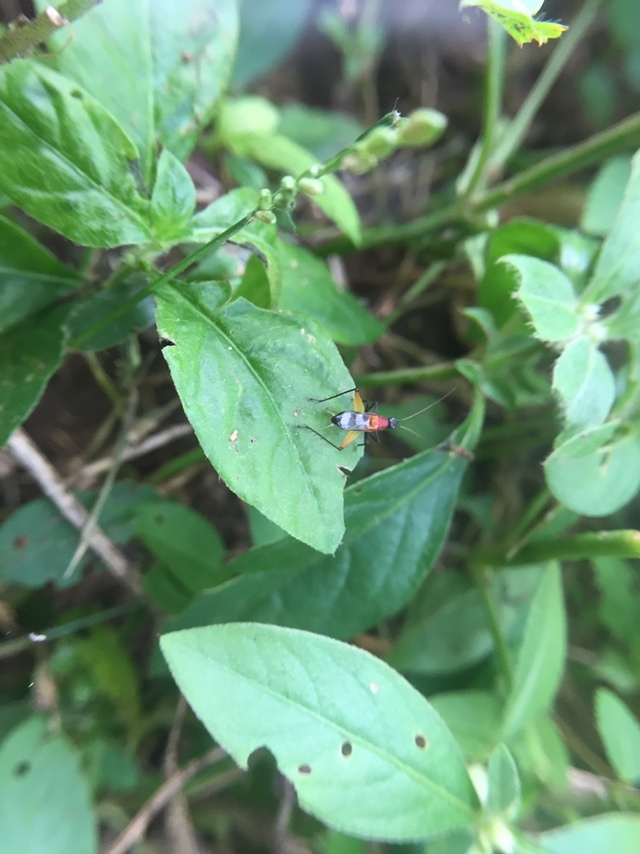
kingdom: Animalia
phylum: Arthropoda
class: Insecta
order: Orthoptera
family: Trigonidiidae
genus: Homoeoxipha
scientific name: Homoeoxipha lycoides
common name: Tinkling leaf-runner
